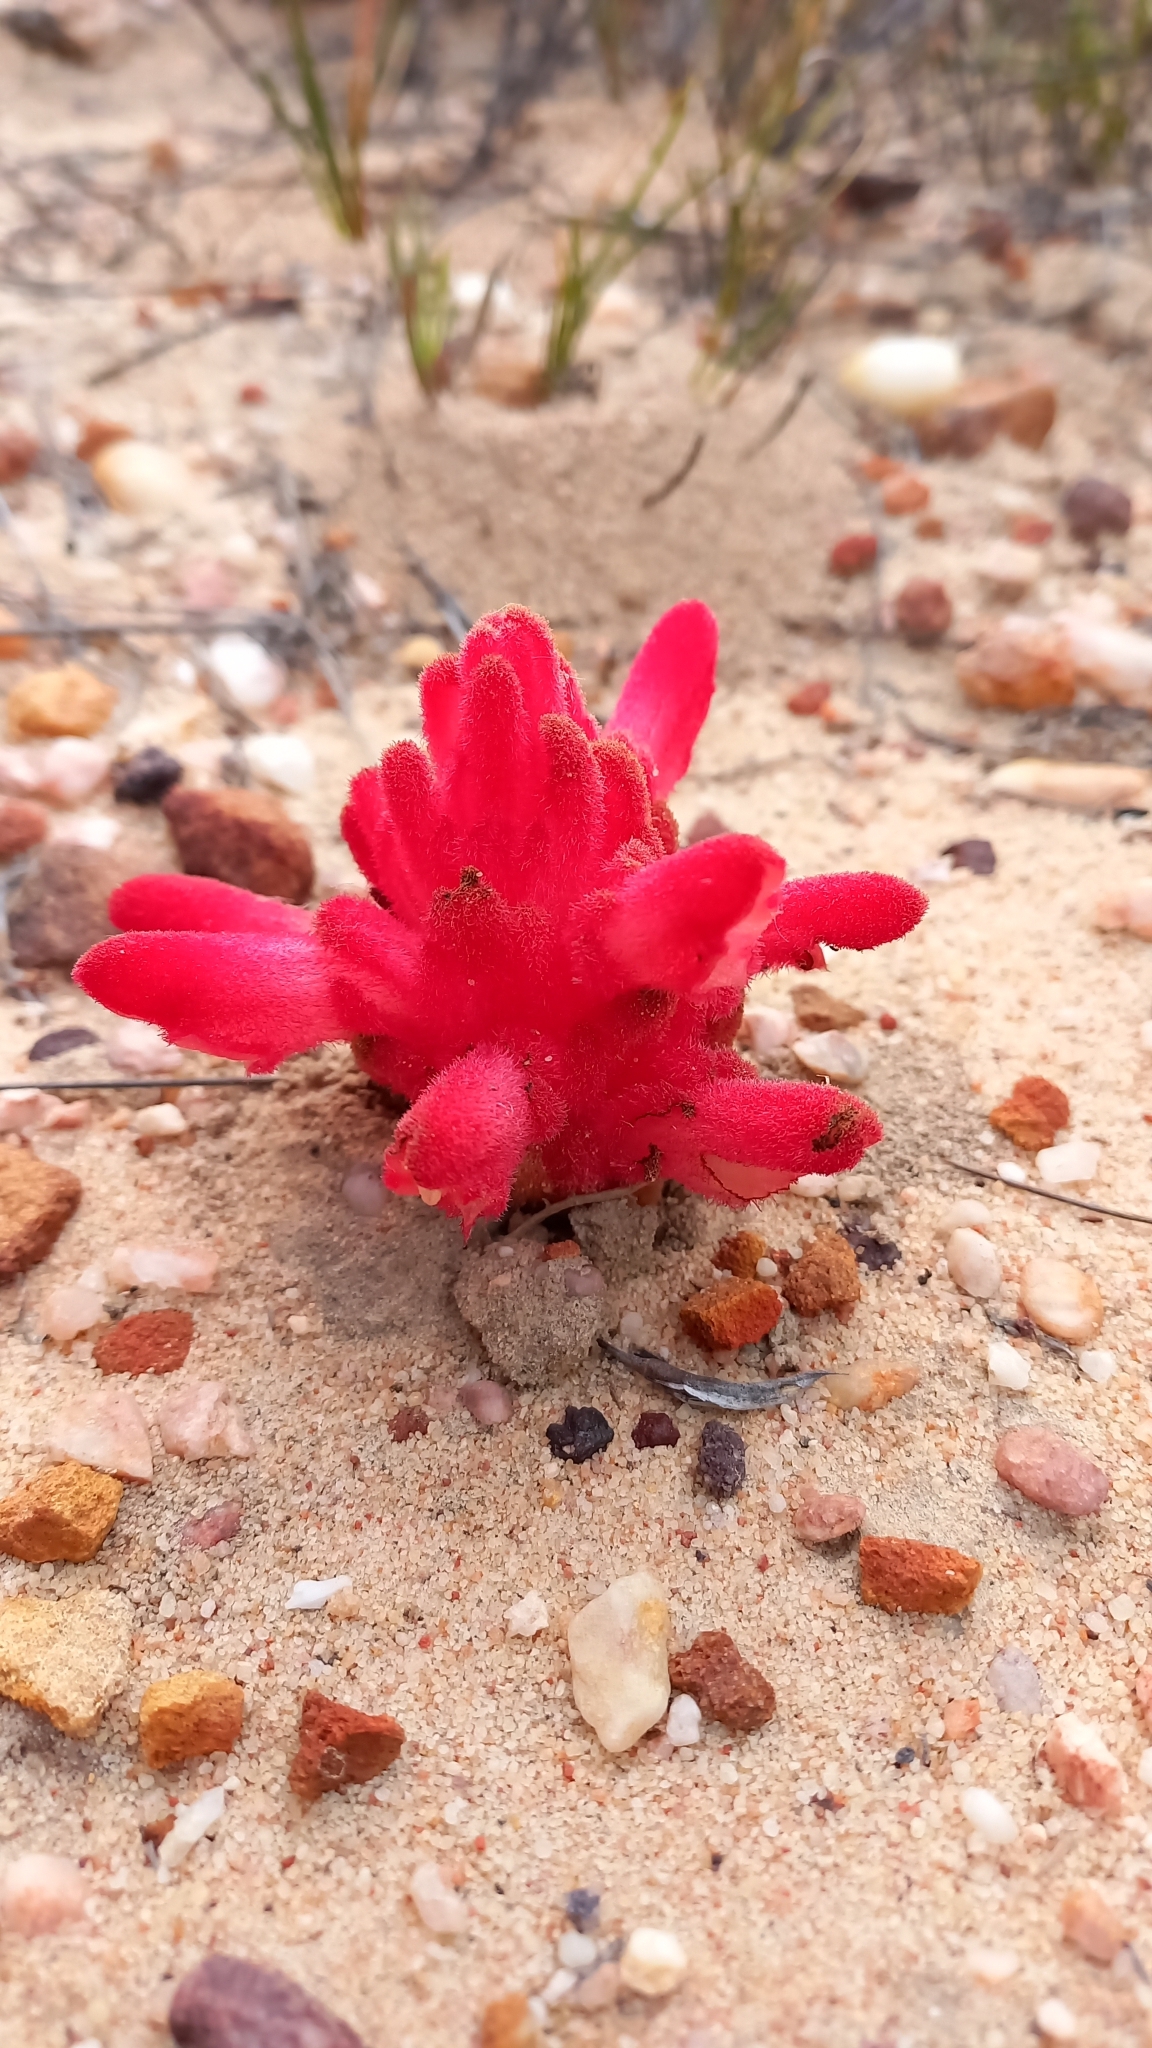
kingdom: Plantae
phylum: Tracheophyta
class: Magnoliopsida
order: Lamiales
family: Orobanchaceae
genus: Hyobanche
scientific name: Hyobanche sanguinea
